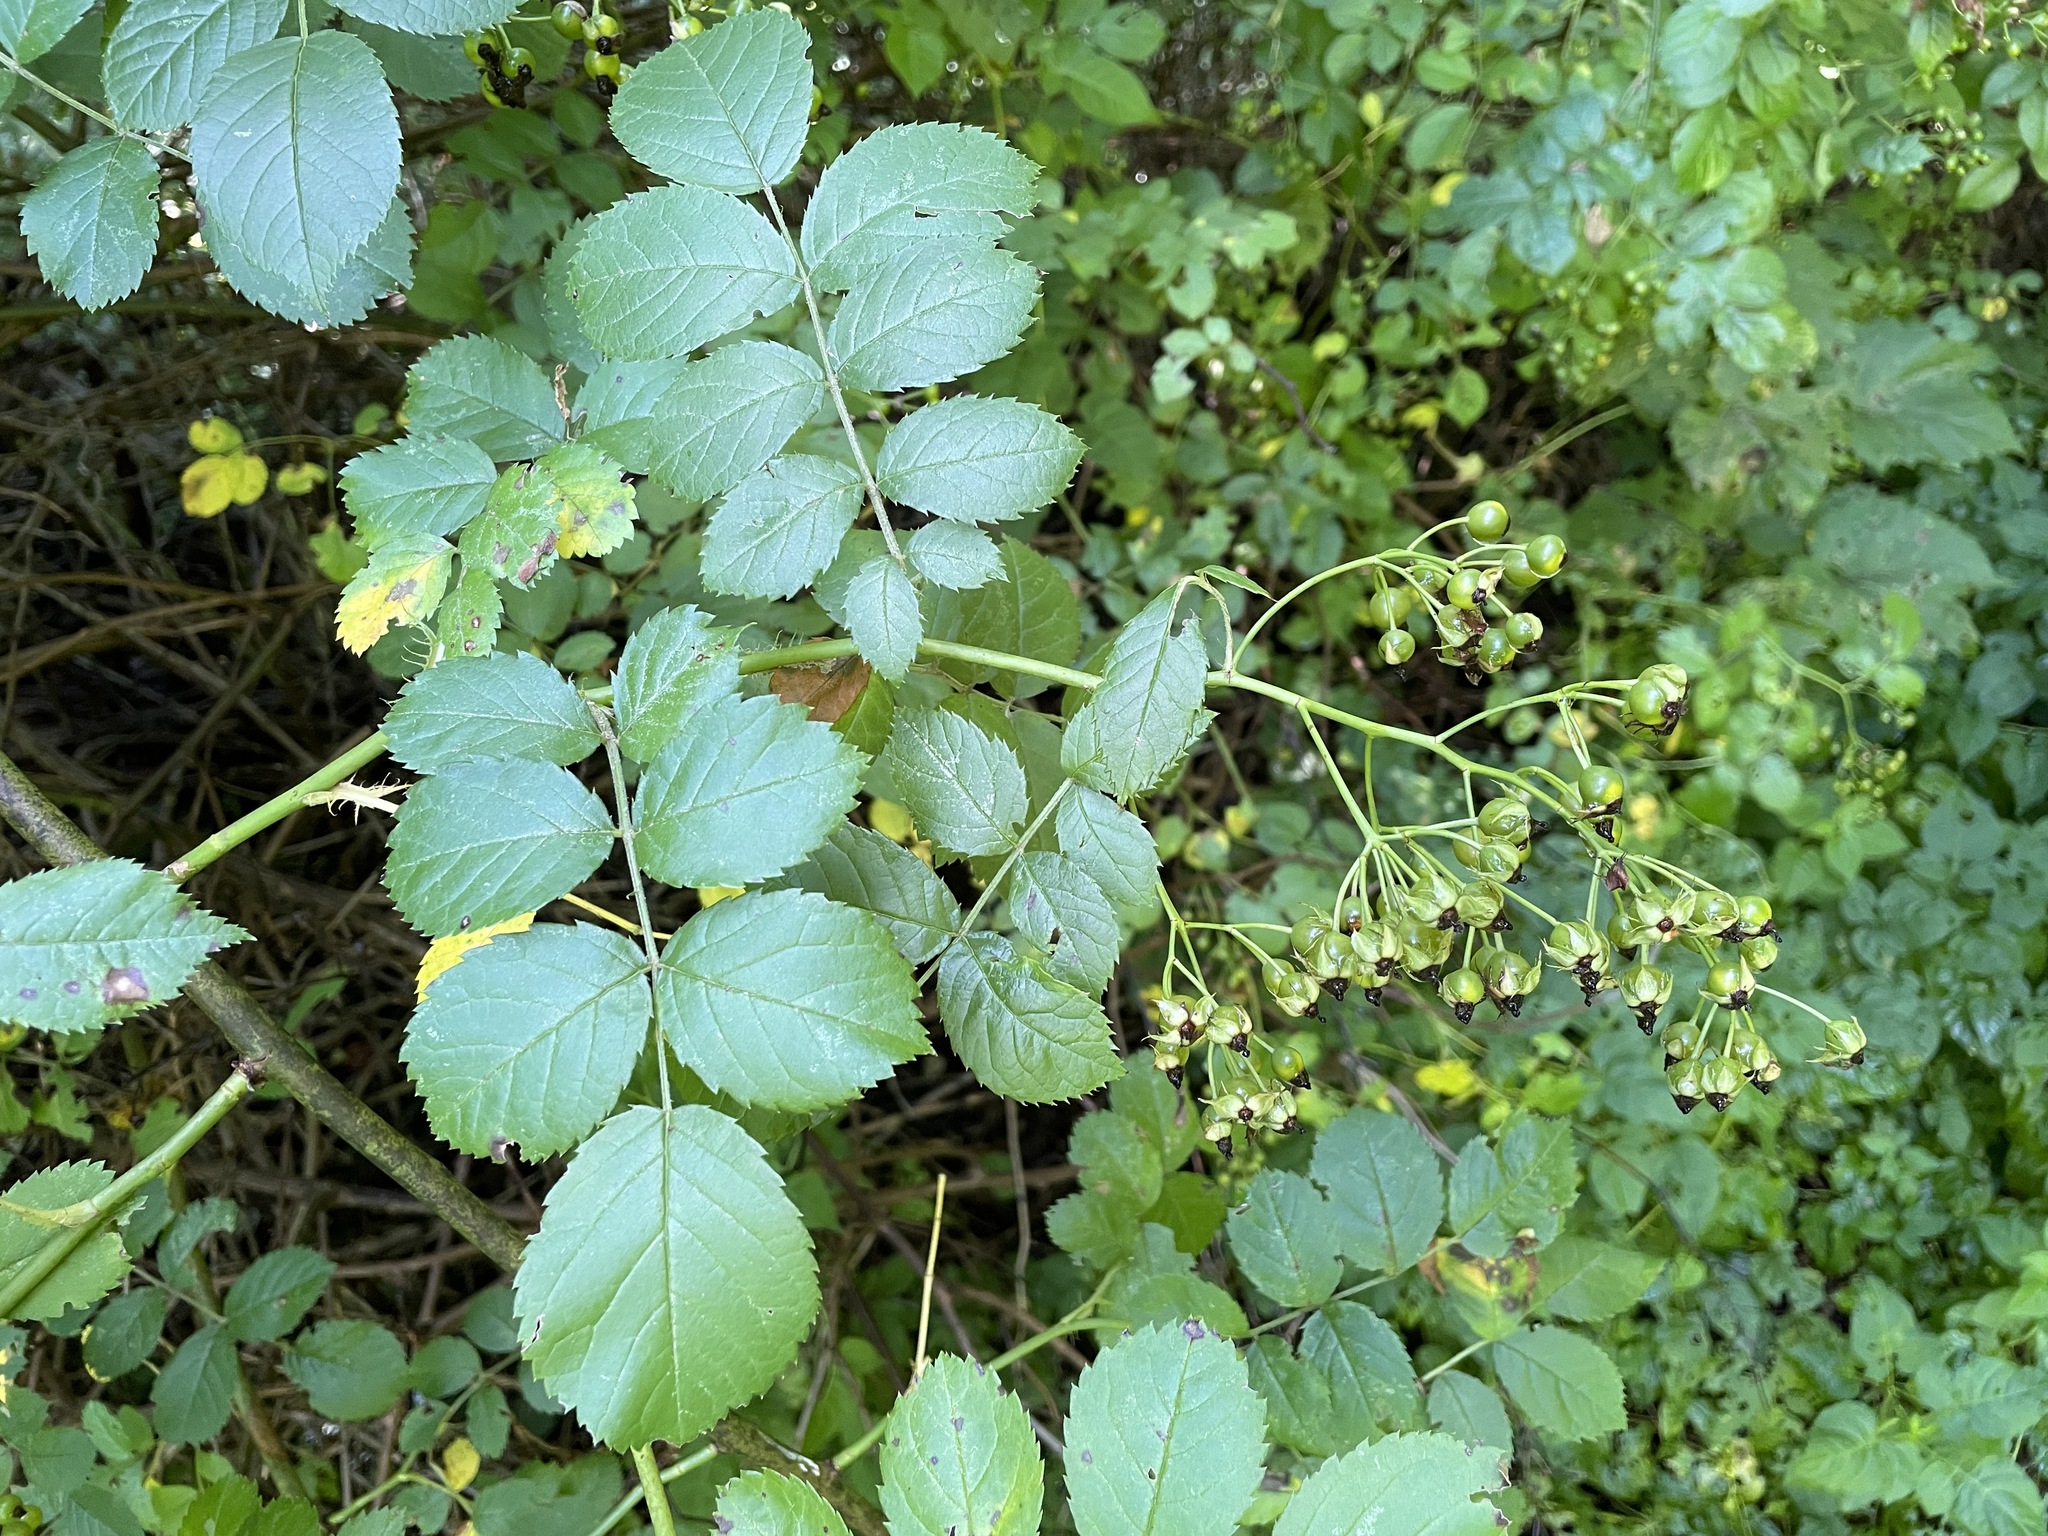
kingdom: Plantae
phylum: Tracheophyta
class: Magnoliopsida
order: Rosales
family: Rosaceae
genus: Rosa
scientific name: Rosa multiflora
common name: Multiflora rose
